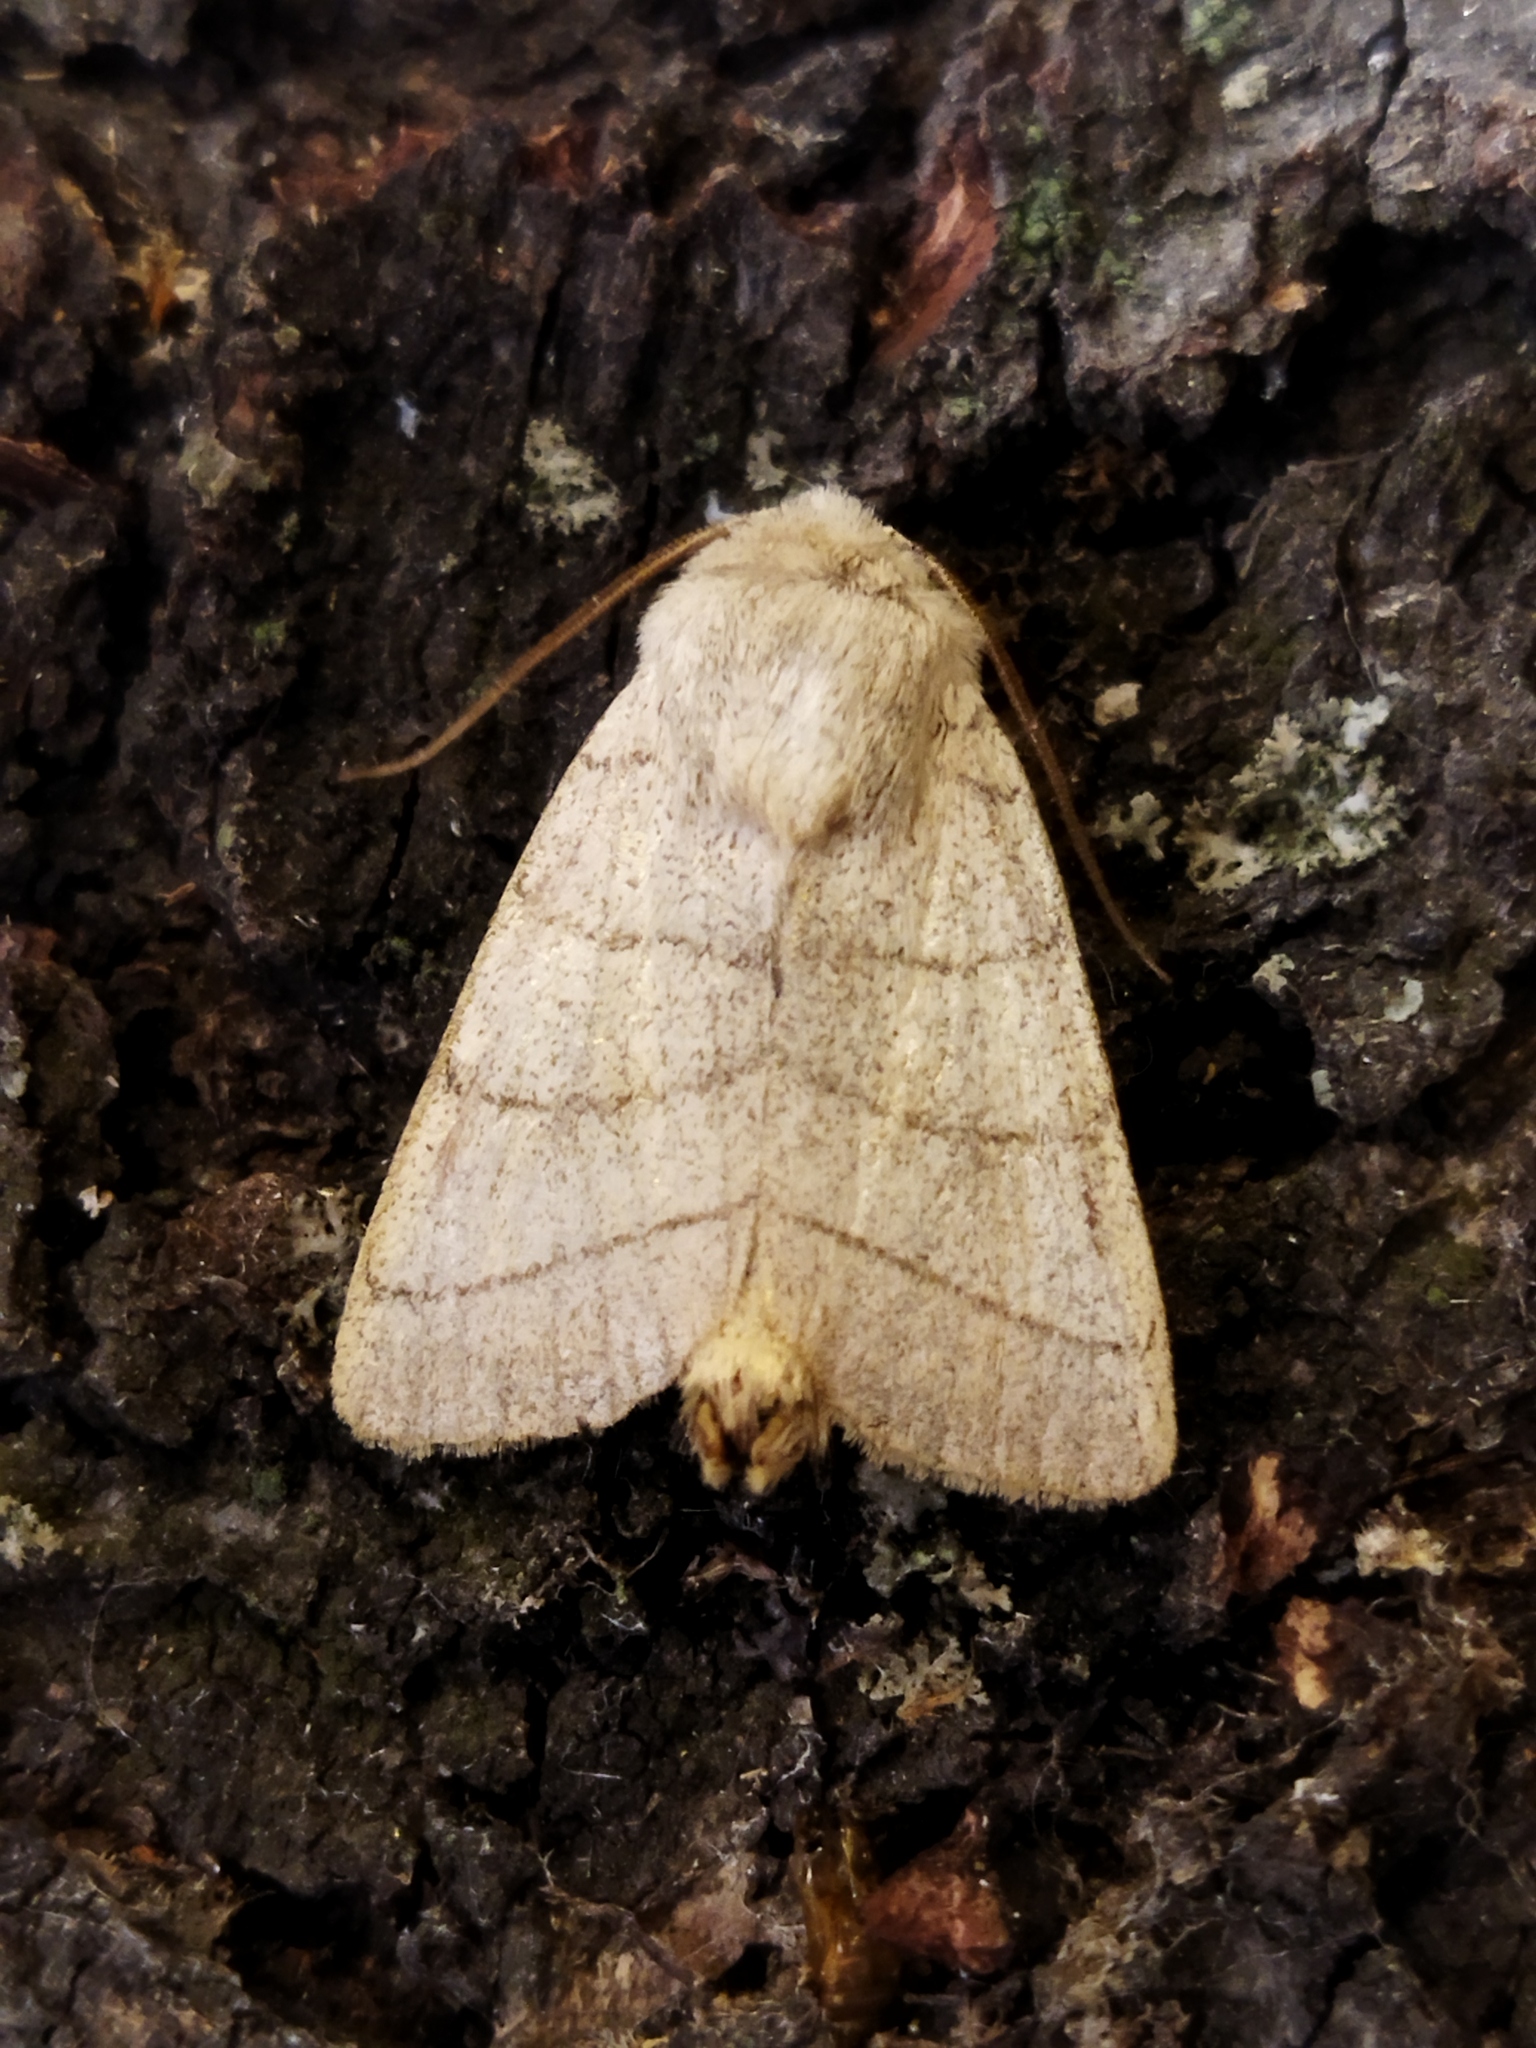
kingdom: Animalia
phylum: Arthropoda
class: Insecta
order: Lepidoptera
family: Noctuidae
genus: Charanyca
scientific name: Charanyca trigrammica
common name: Treble lines
